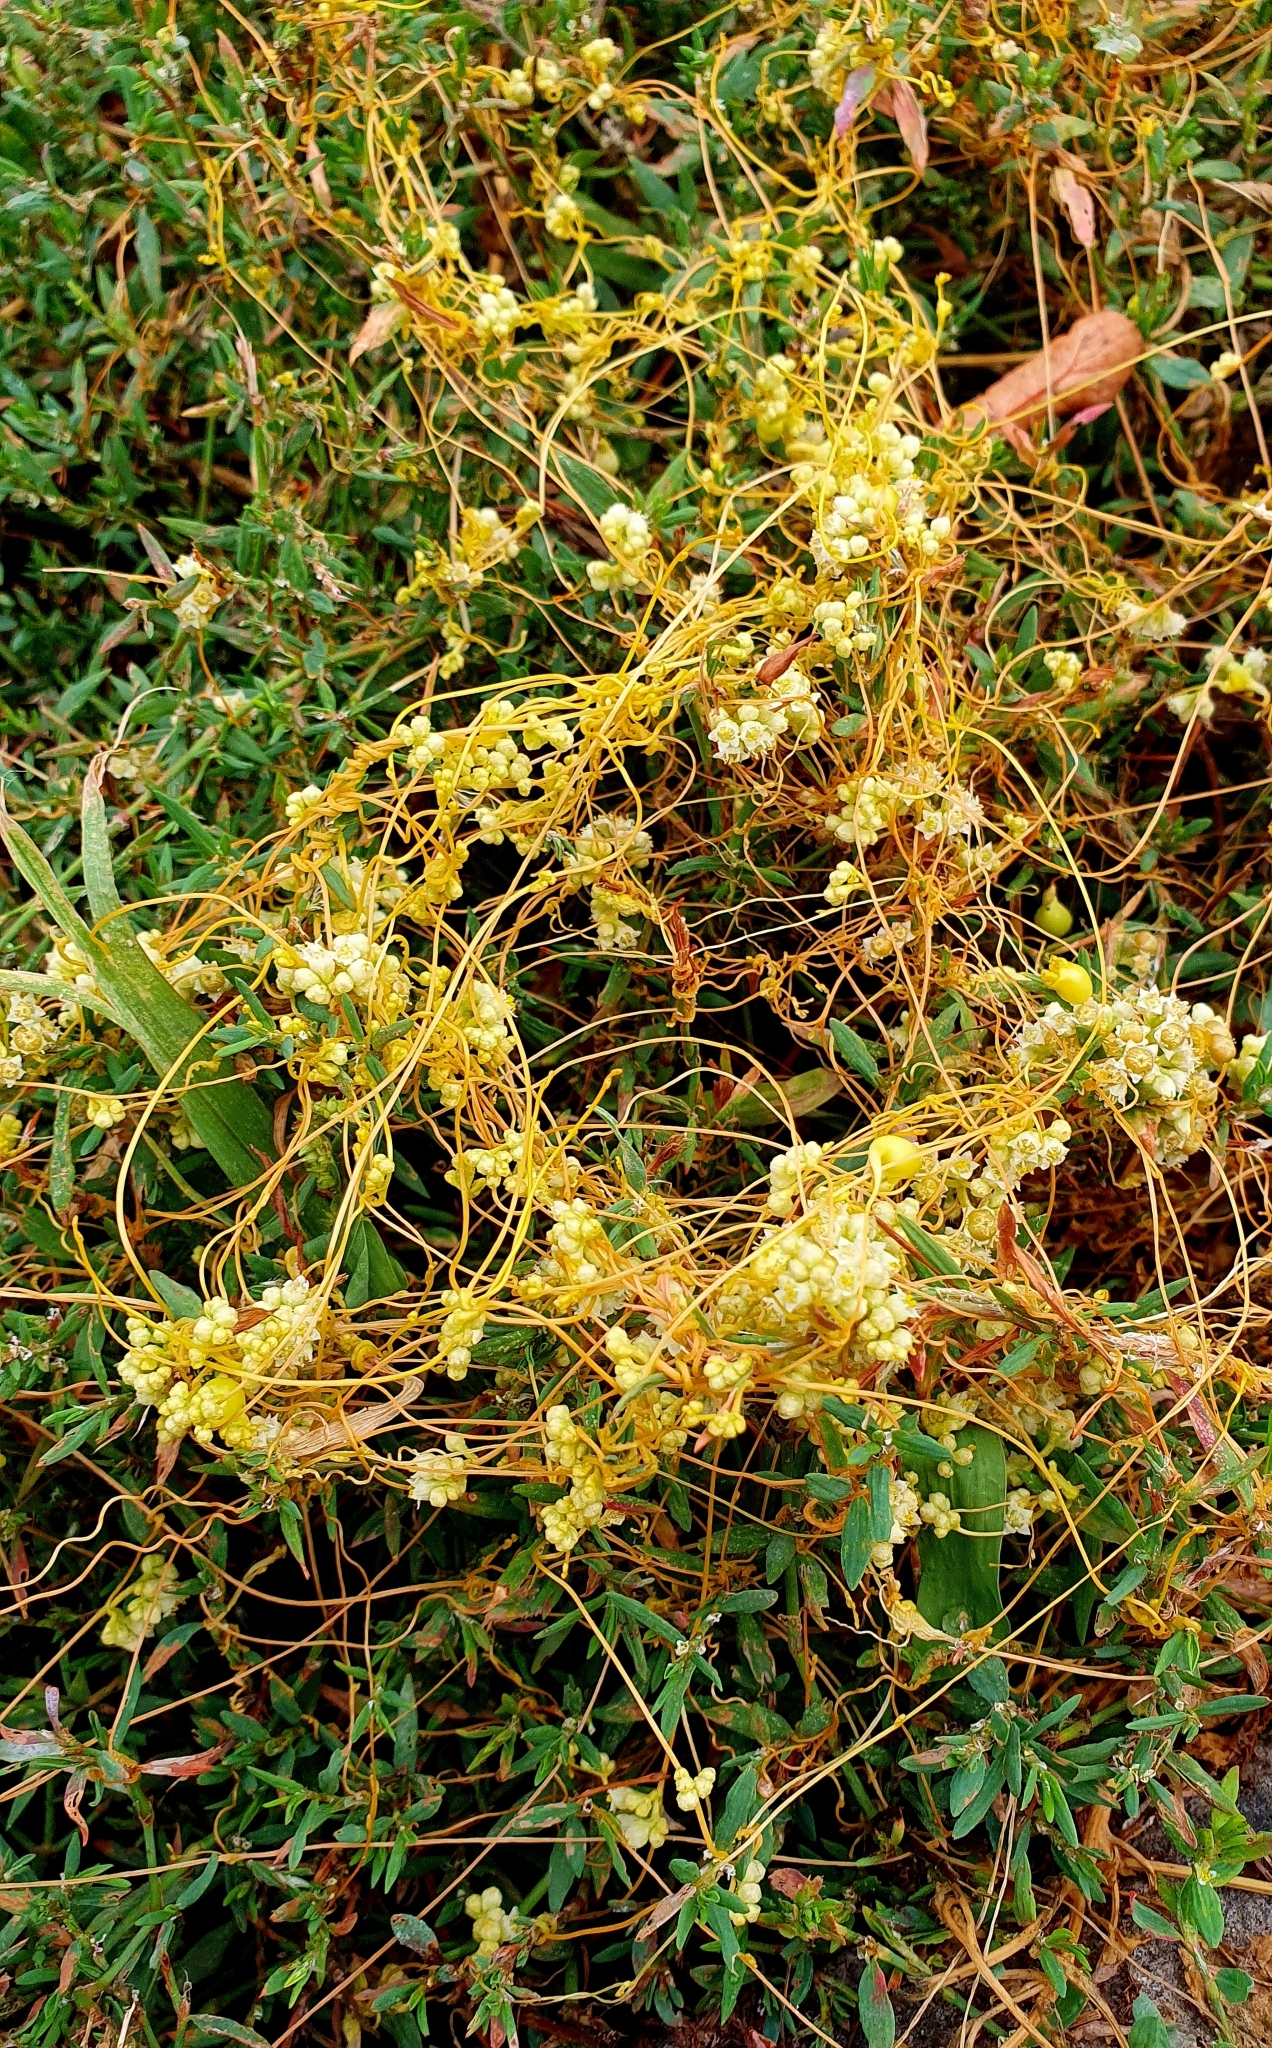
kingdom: Plantae
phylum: Tracheophyta
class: Magnoliopsida
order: Solanales
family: Convolvulaceae
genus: Cuscuta
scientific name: Cuscuta campestris
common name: Yellow dodder
